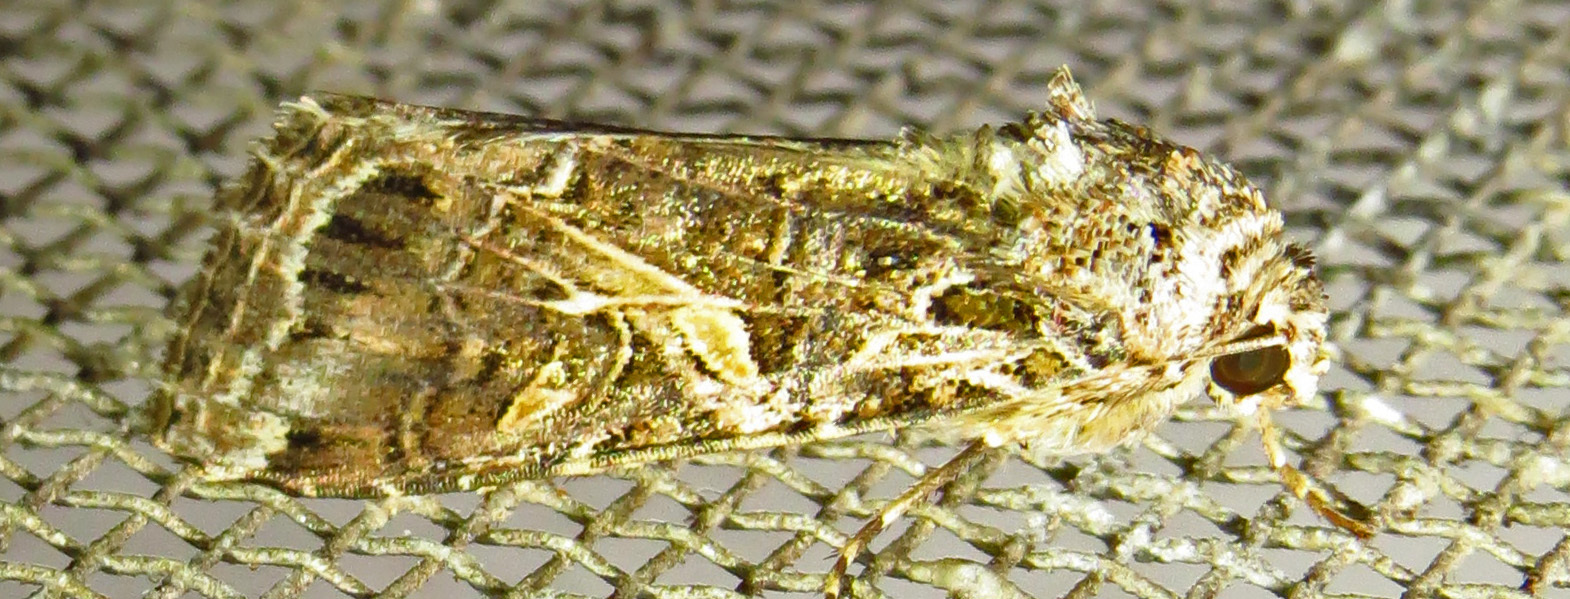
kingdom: Animalia
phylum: Arthropoda
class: Insecta
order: Lepidoptera
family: Noctuidae
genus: Spodoptera
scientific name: Spodoptera ornithogalli
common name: Yellow-striped armyworm
